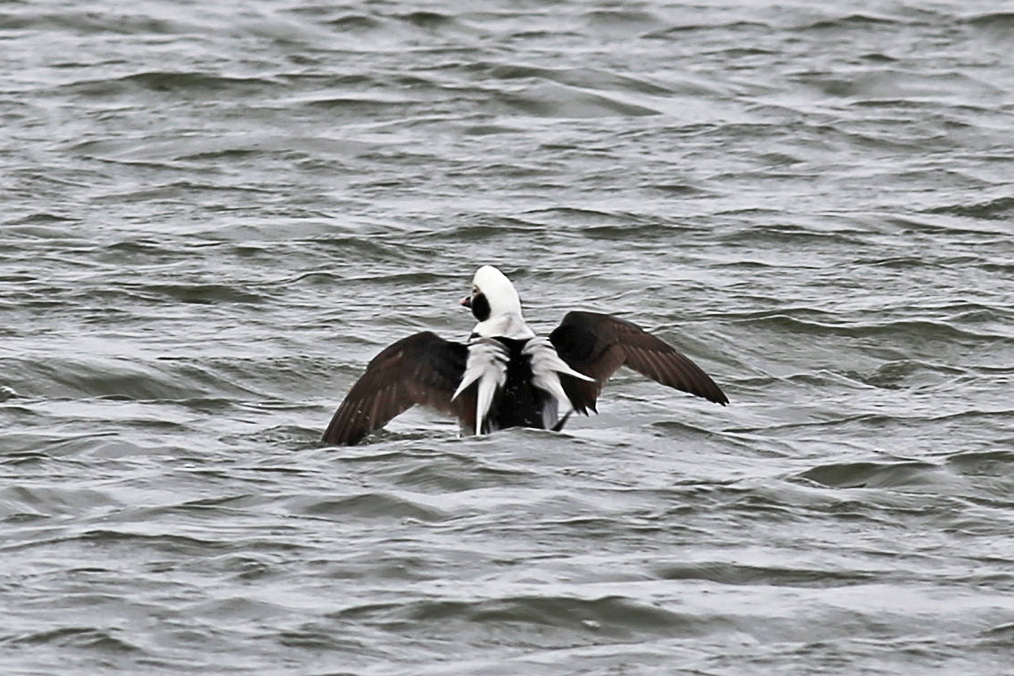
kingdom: Animalia
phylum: Chordata
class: Aves
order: Anseriformes
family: Anatidae
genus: Clangula
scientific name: Clangula hyemalis
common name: Long-tailed duck
